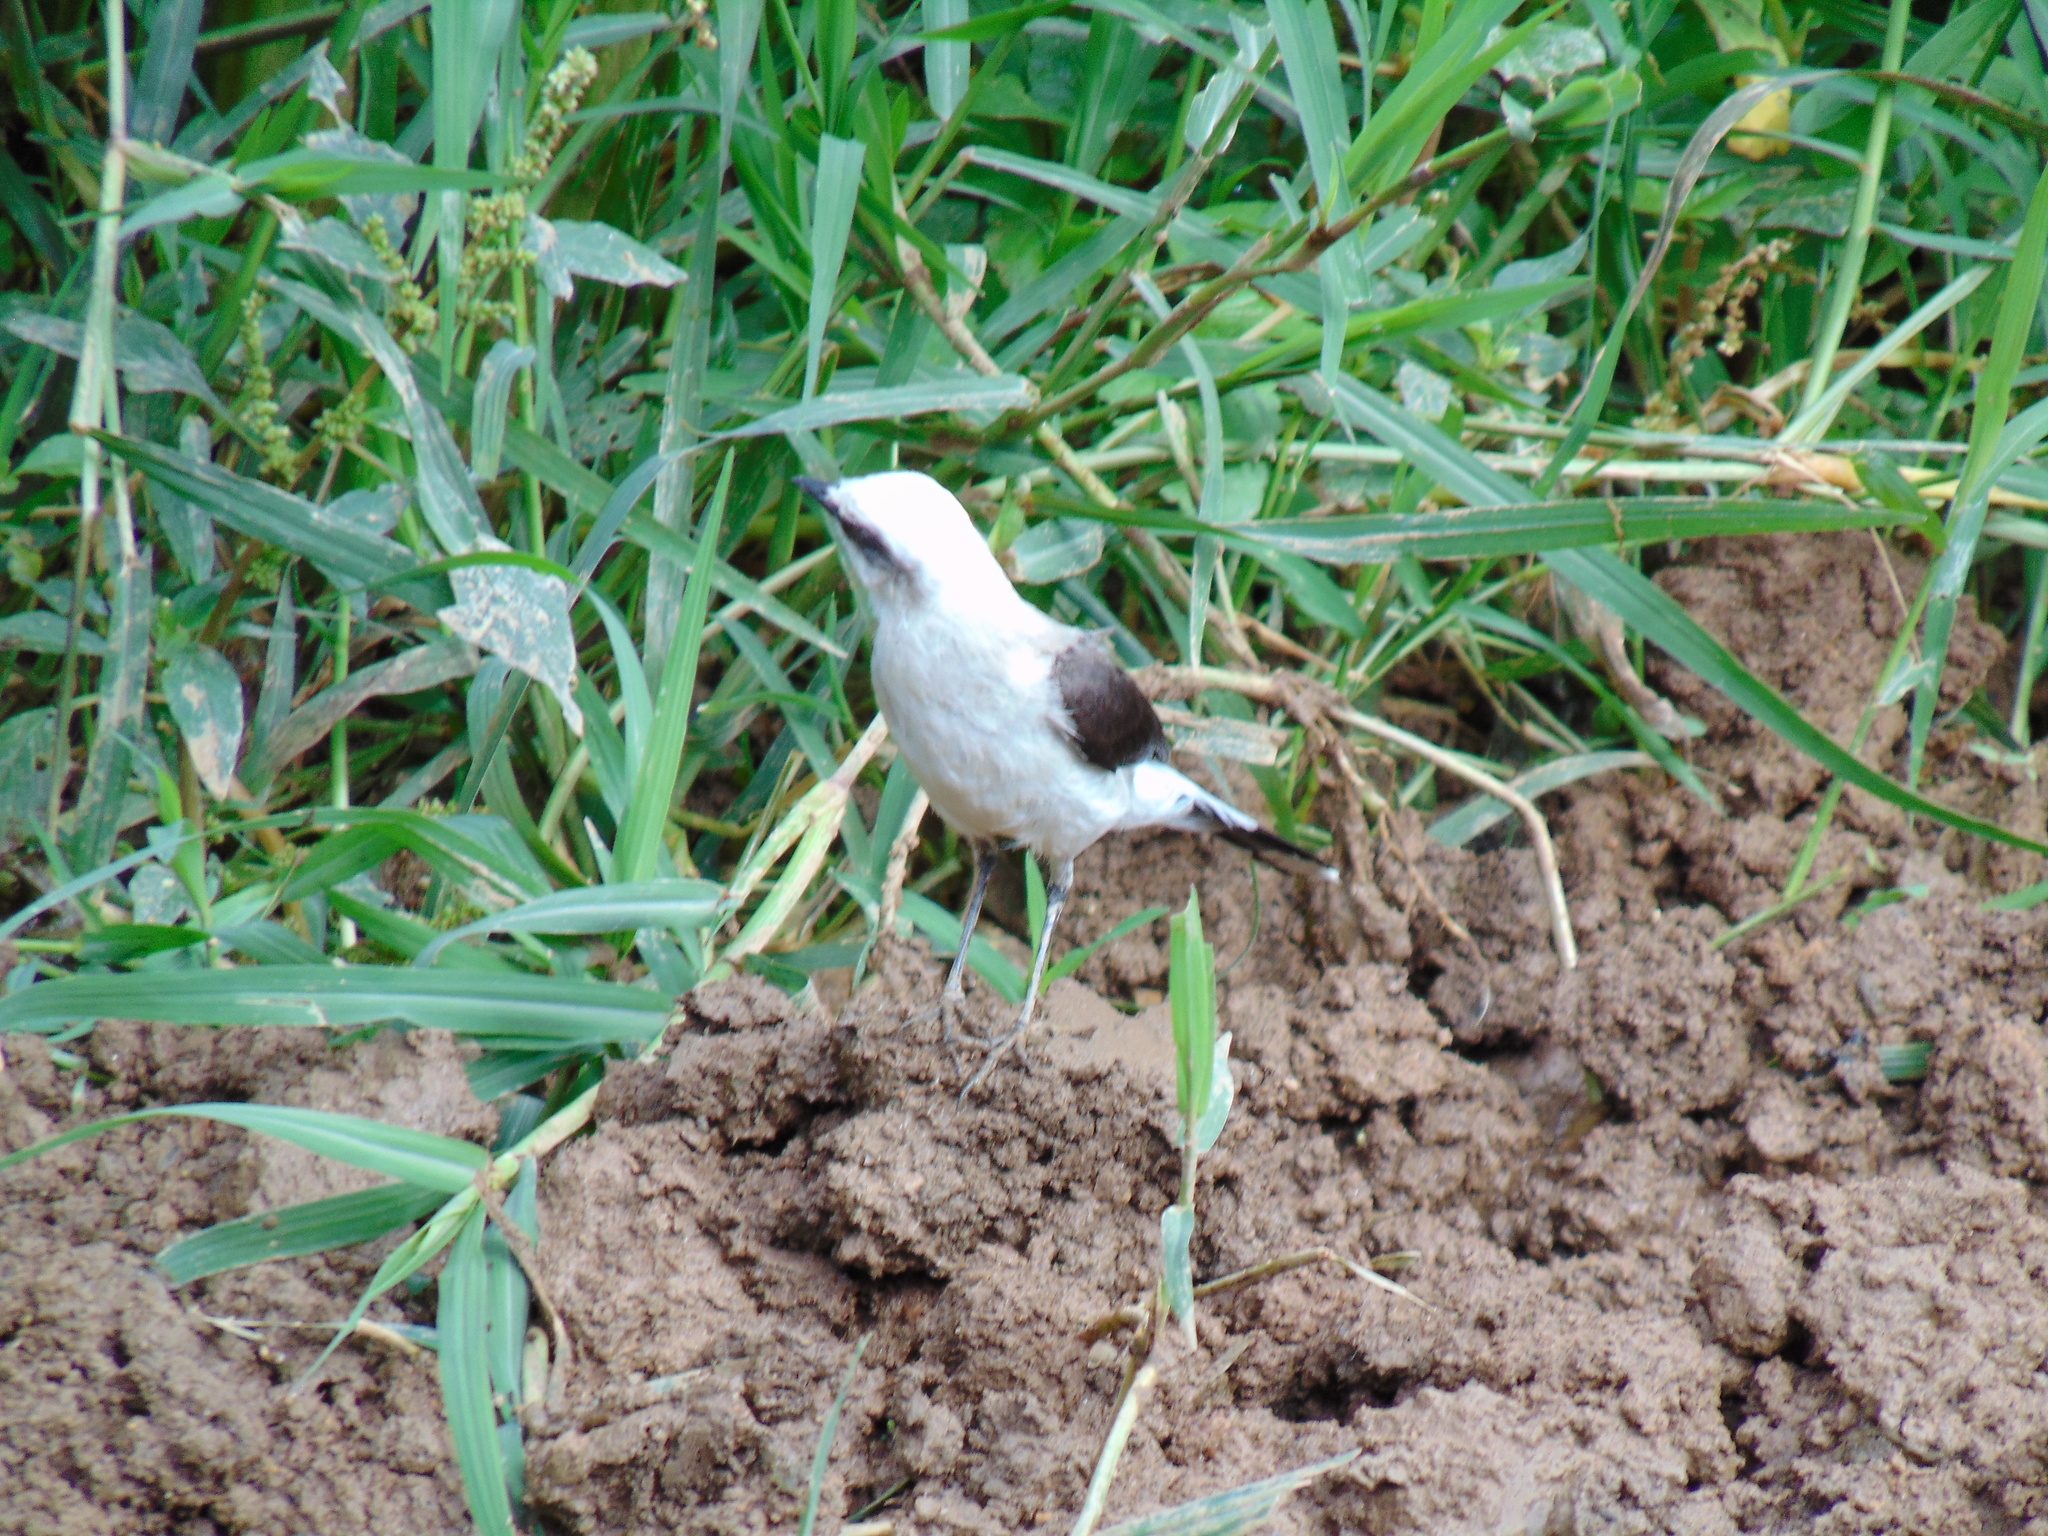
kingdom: Animalia
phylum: Chordata
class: Aves
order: Passeriformes
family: Tyrannidae
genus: Fluvicola
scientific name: Fluvicola nengeta
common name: Masked water tyrant
